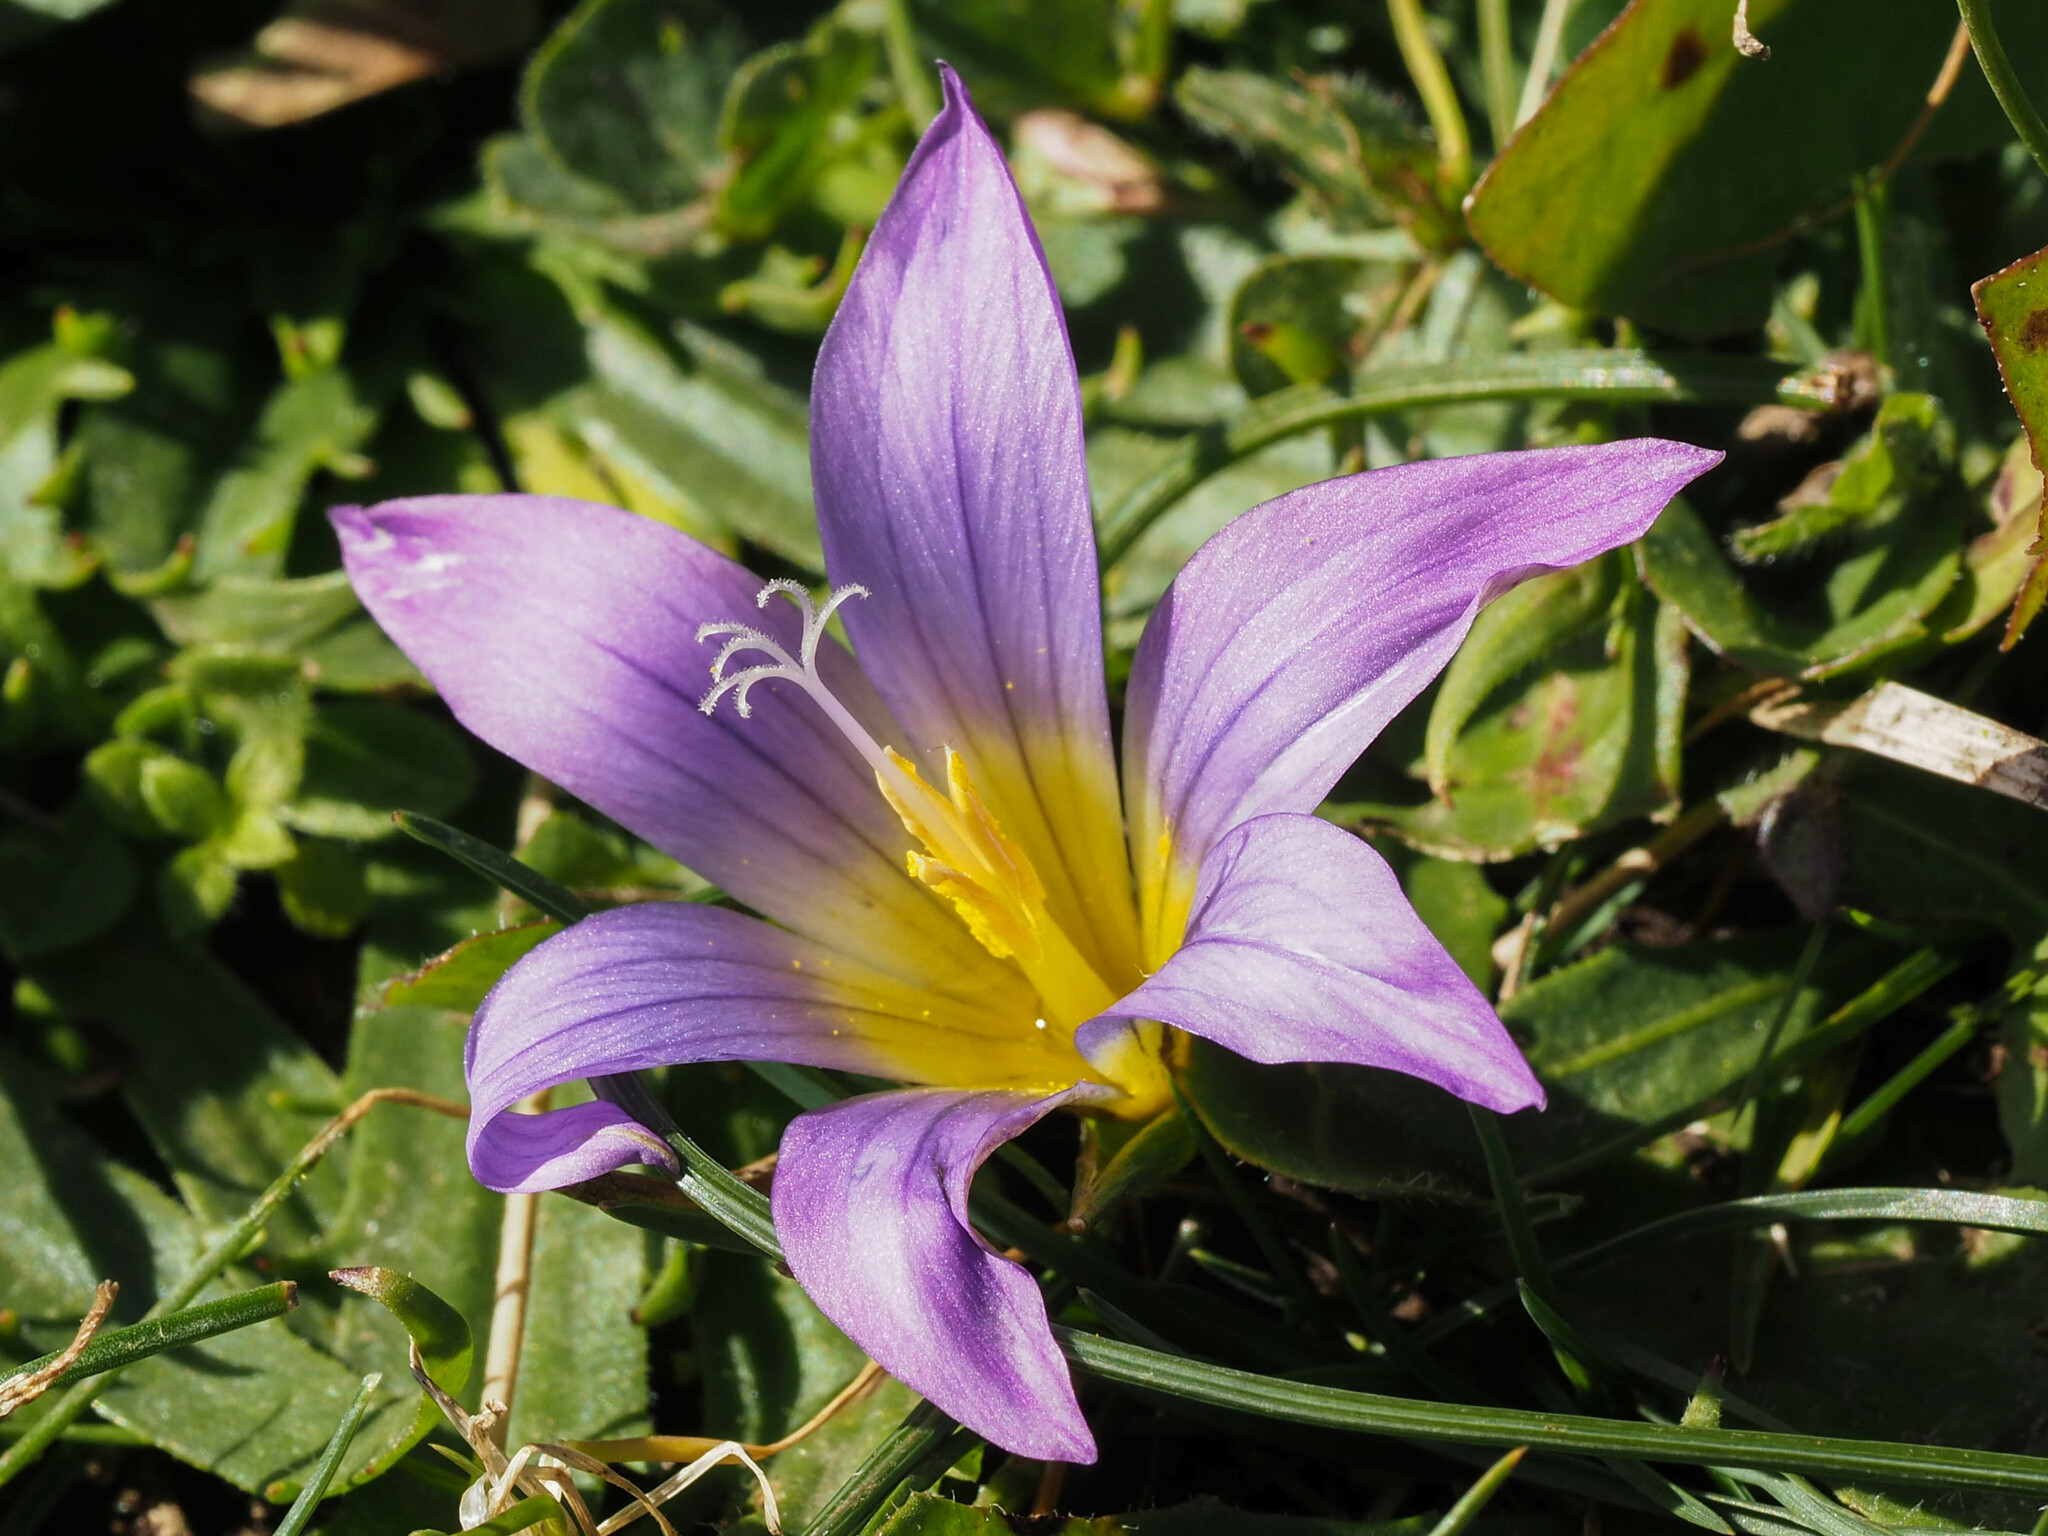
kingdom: Plantae
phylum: Tracheophyta
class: Liliopsida
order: Asparagales
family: Iridaceae
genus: Romulea
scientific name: Romulea bulbocodium
